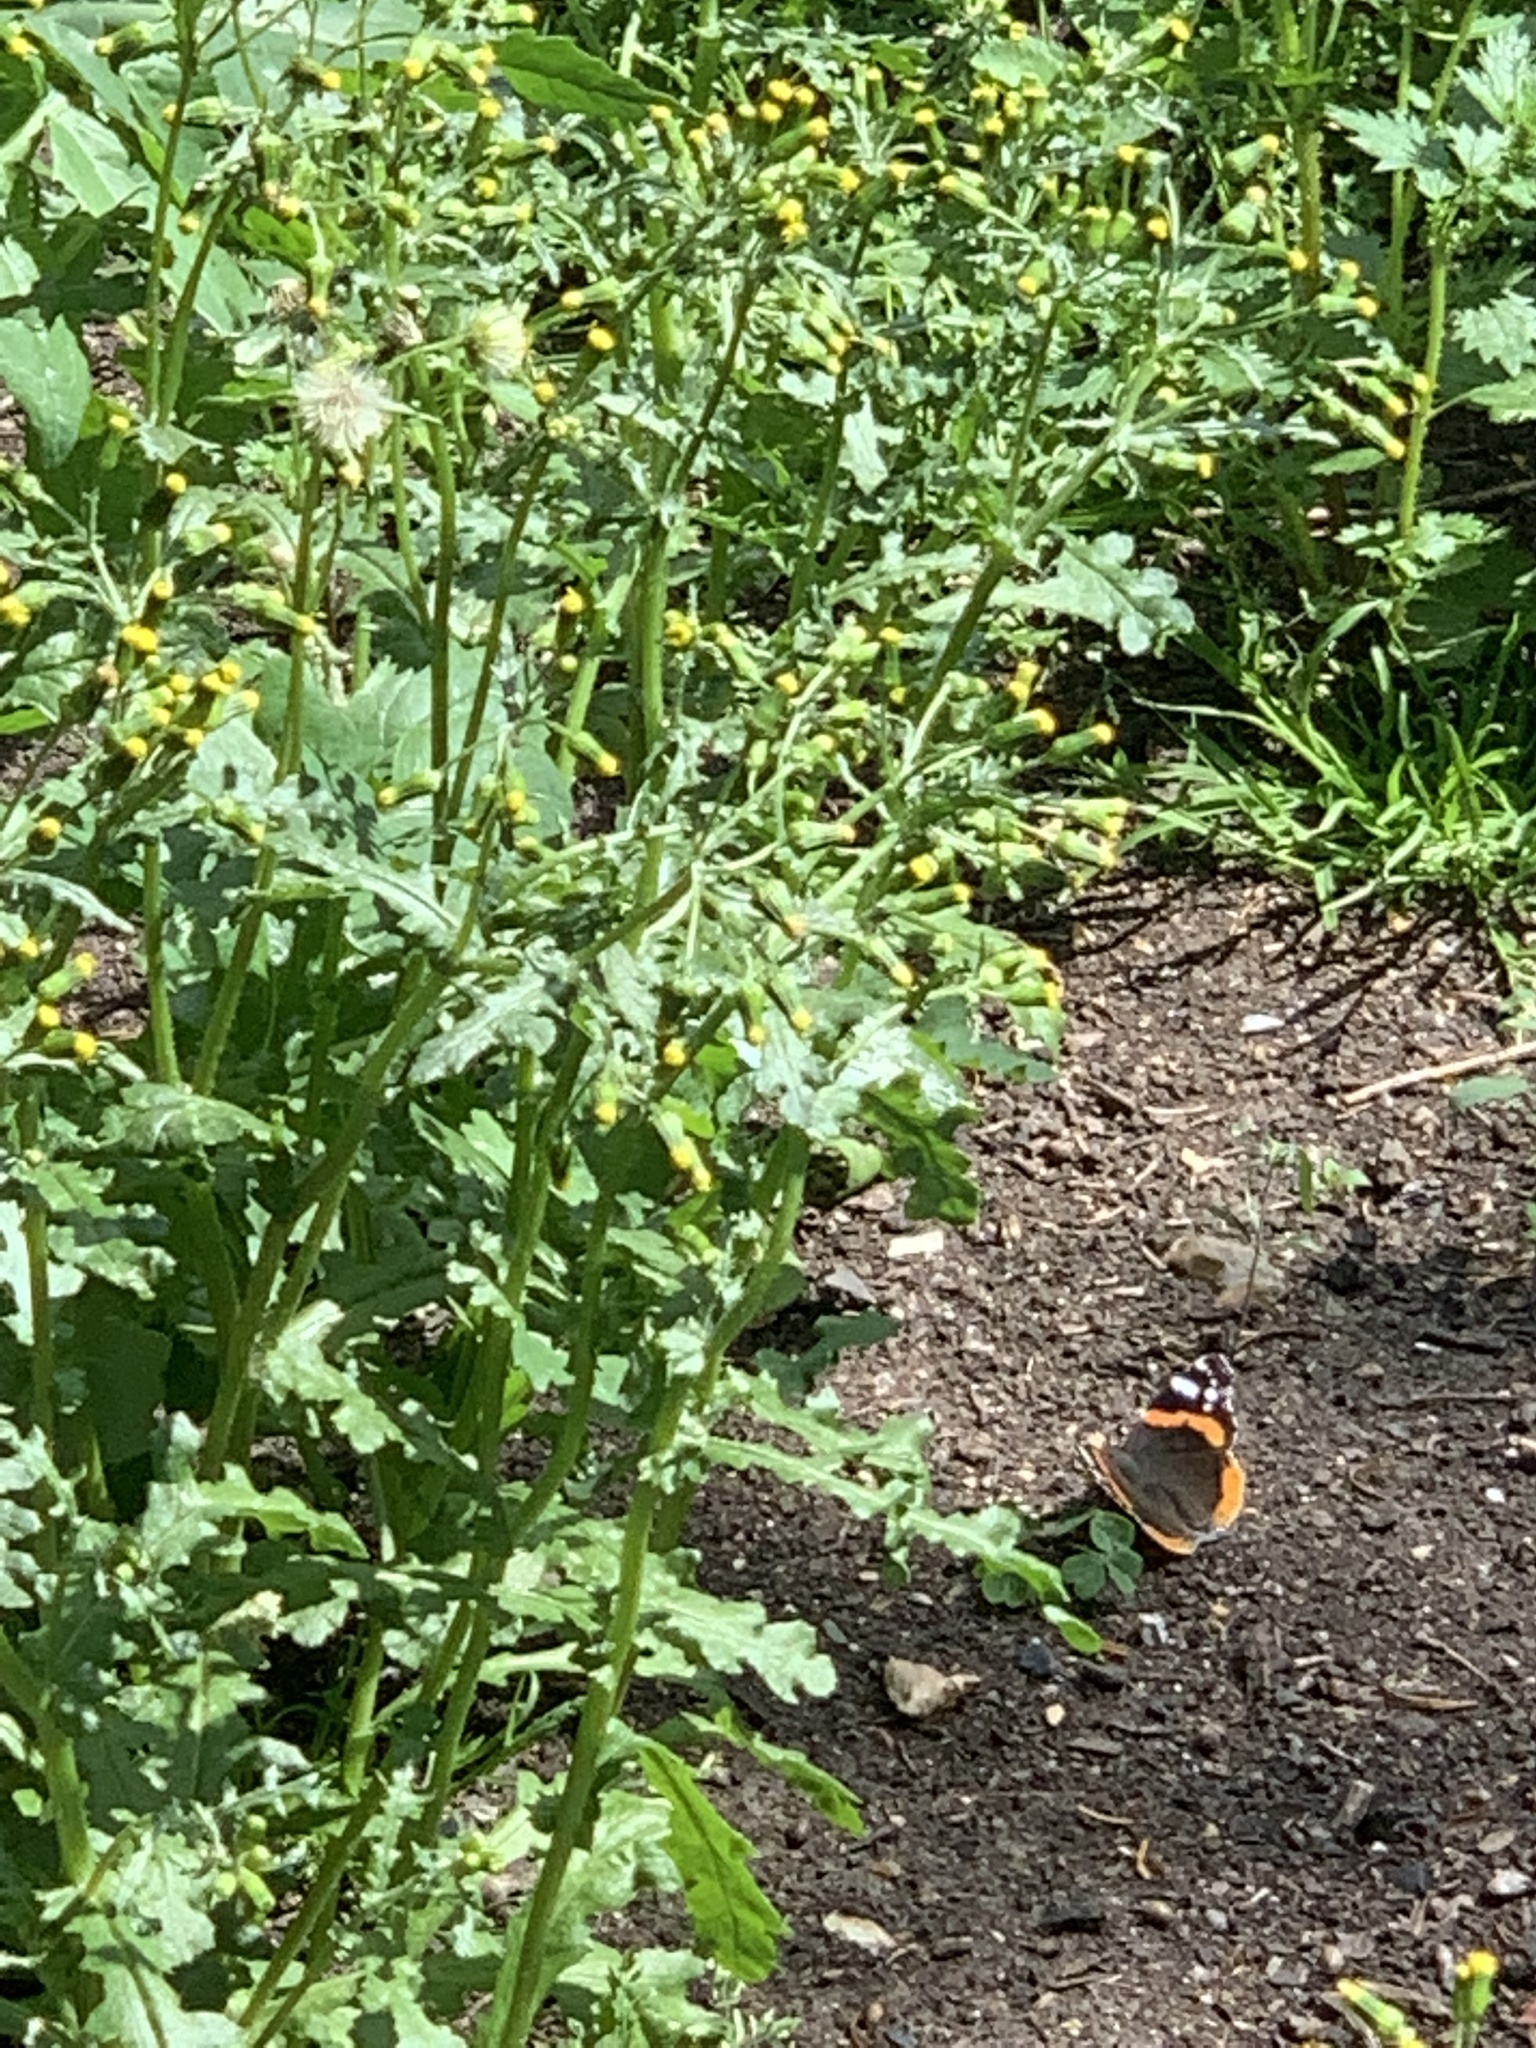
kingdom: Animalia
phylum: Arthropoda
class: Insecta
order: Lepidoptera
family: Nymphalidae
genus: Vanessa
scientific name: Vanessa atalanta
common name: Red admiral
